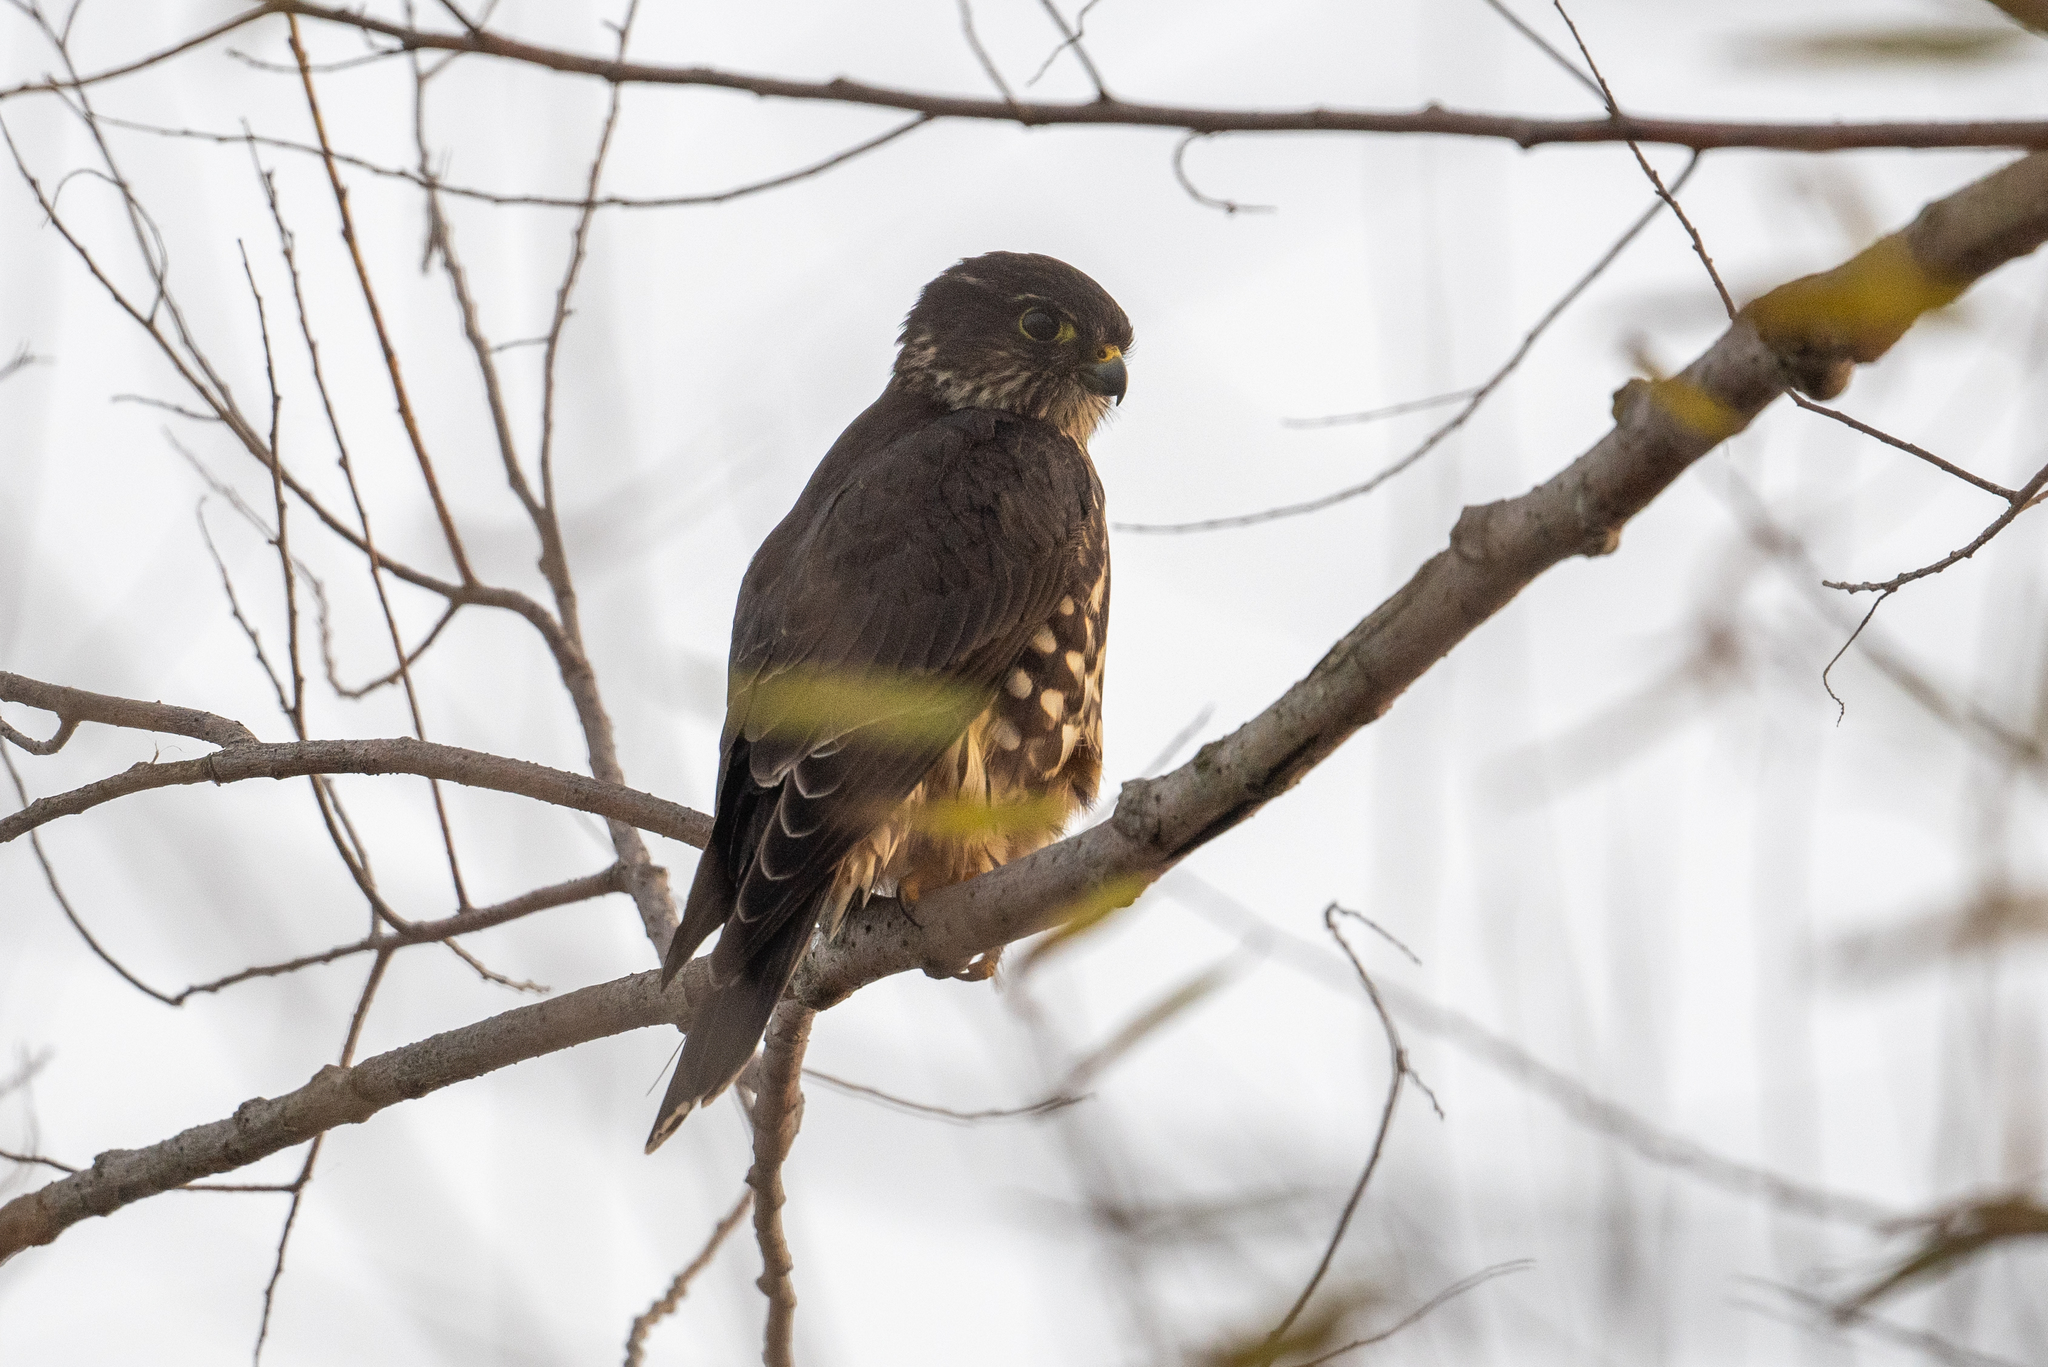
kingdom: Animalia
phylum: Chordata
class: Aves
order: Falconiformes
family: Falconidae
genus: Falco
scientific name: Falco columbarius
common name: Merlin
